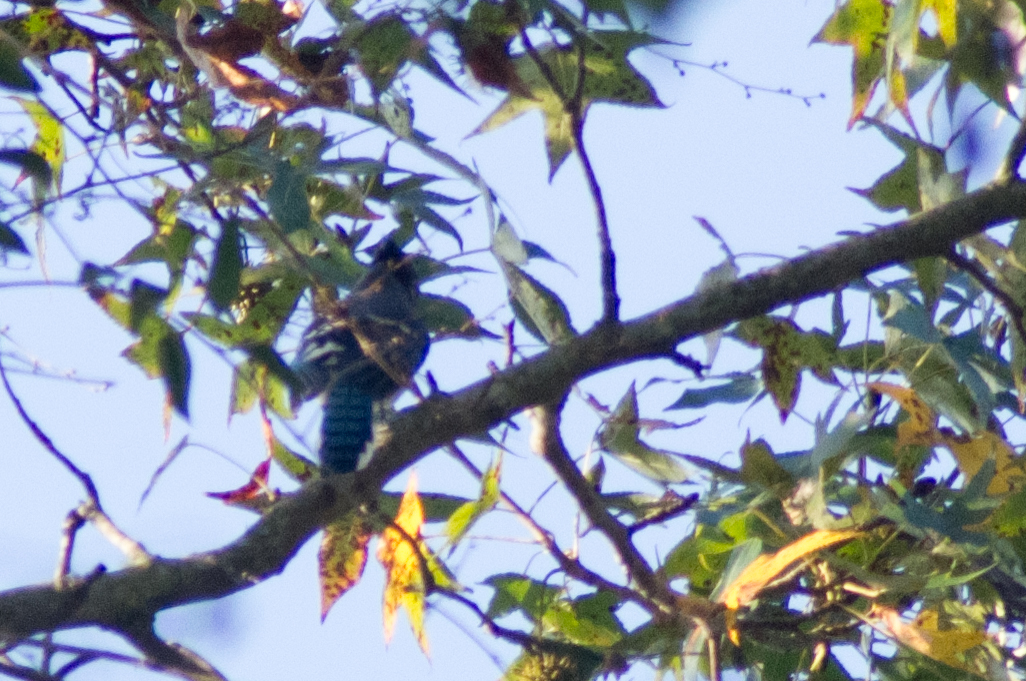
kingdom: Animalia
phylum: Chordata
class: Aves
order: Passeriformes
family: Corvidae
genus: Cyanocitta
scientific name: Cyanocitta cristata
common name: Blue jay
